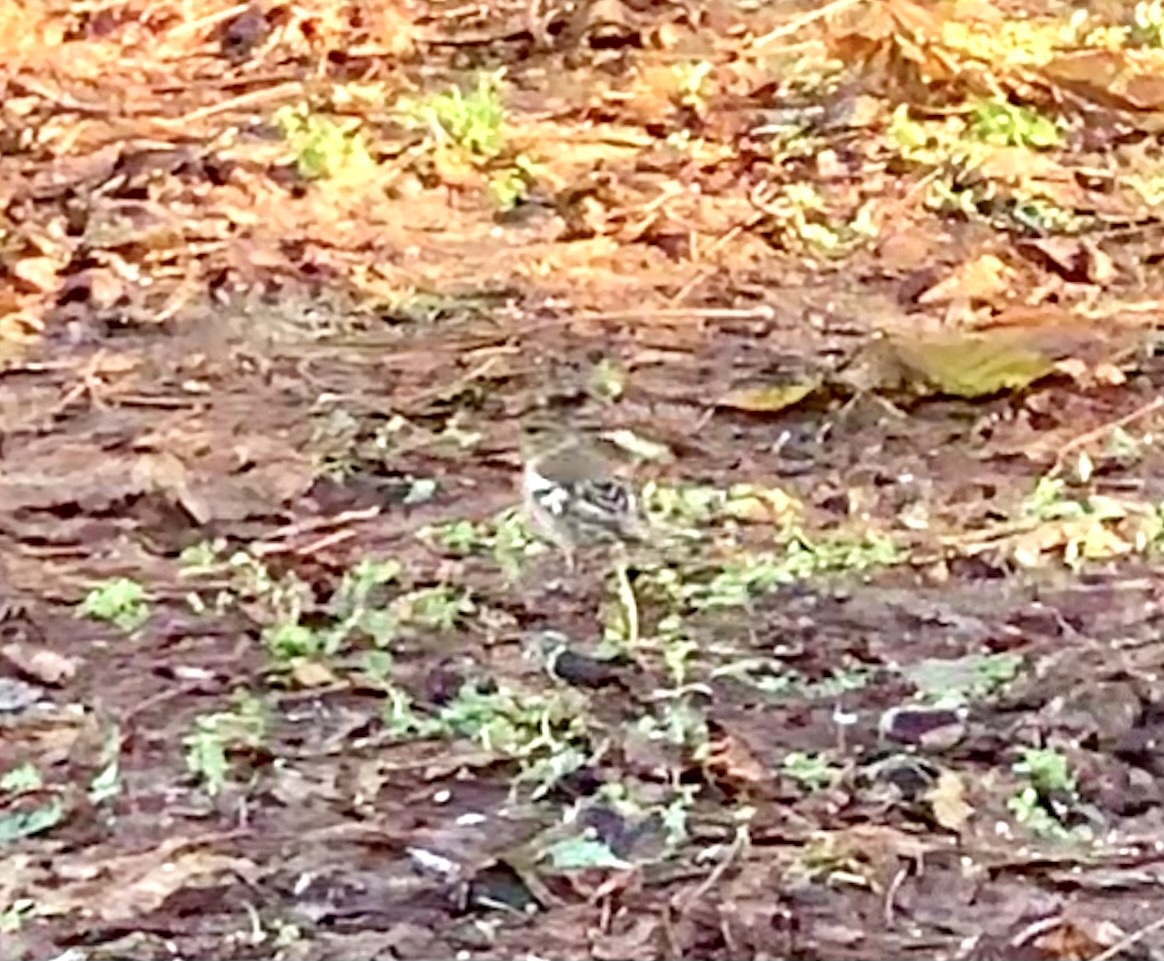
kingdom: Animalia
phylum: Chordata
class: Aves
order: Passeriformes
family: Fringillidae
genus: Fringilla
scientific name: Fringilla coelebs
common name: Common chaffinch
